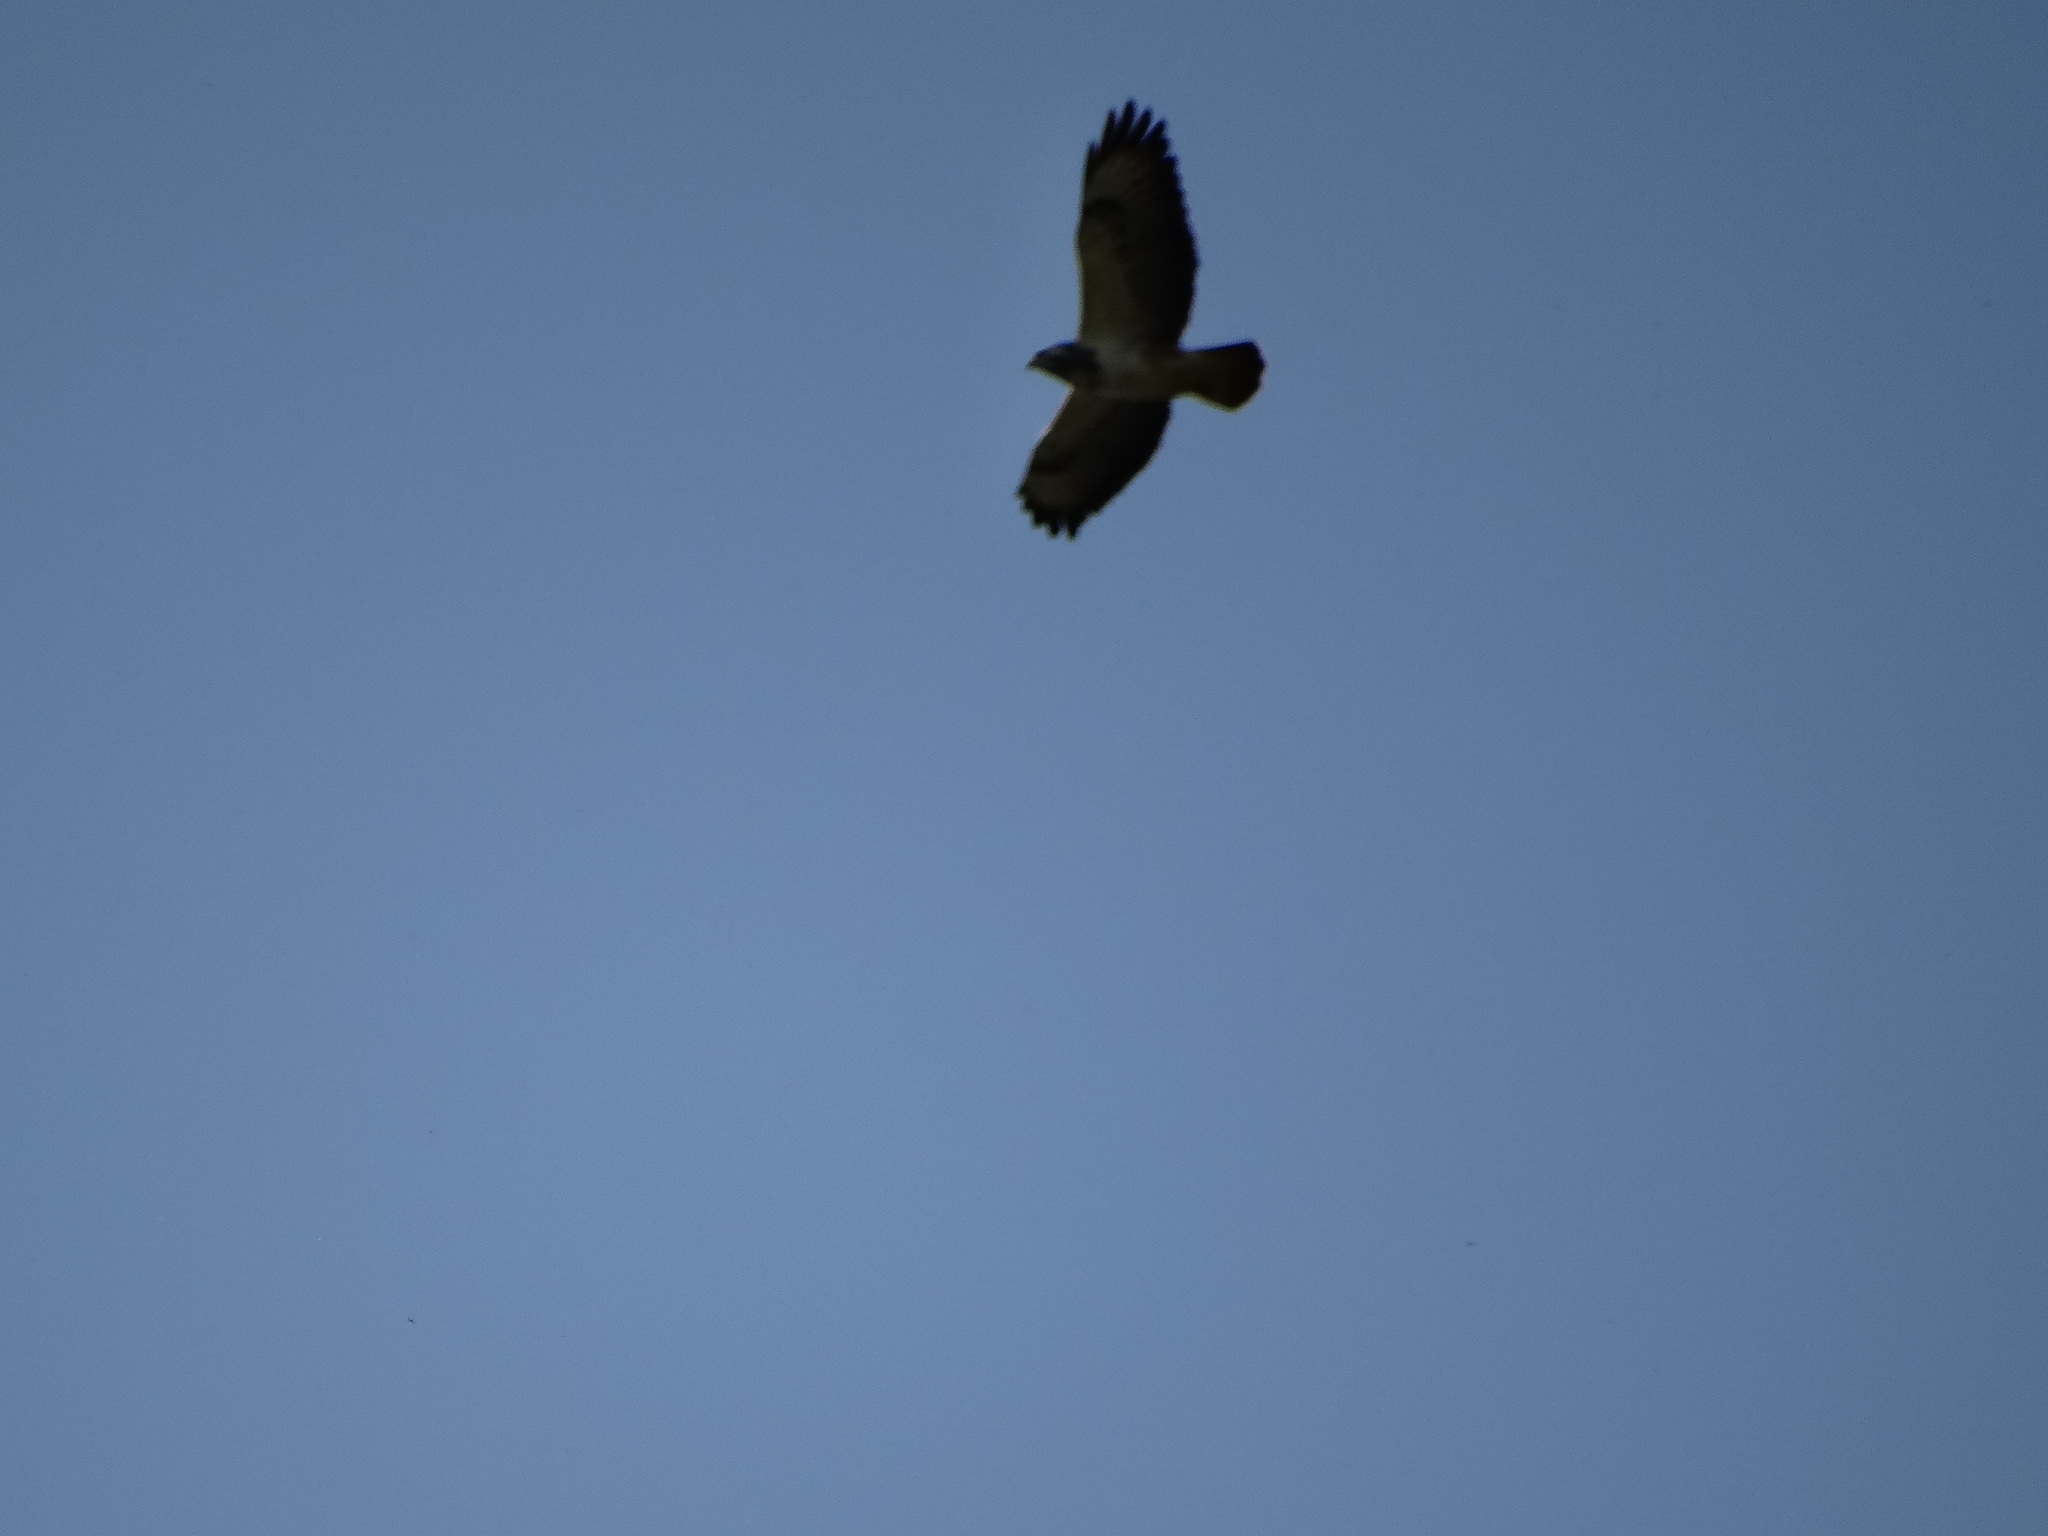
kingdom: Animalia
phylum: Chordata
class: Aves
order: Accipitriformes
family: Accipitridae
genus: Buteo
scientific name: Buteo buteo
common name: Common buzzard
